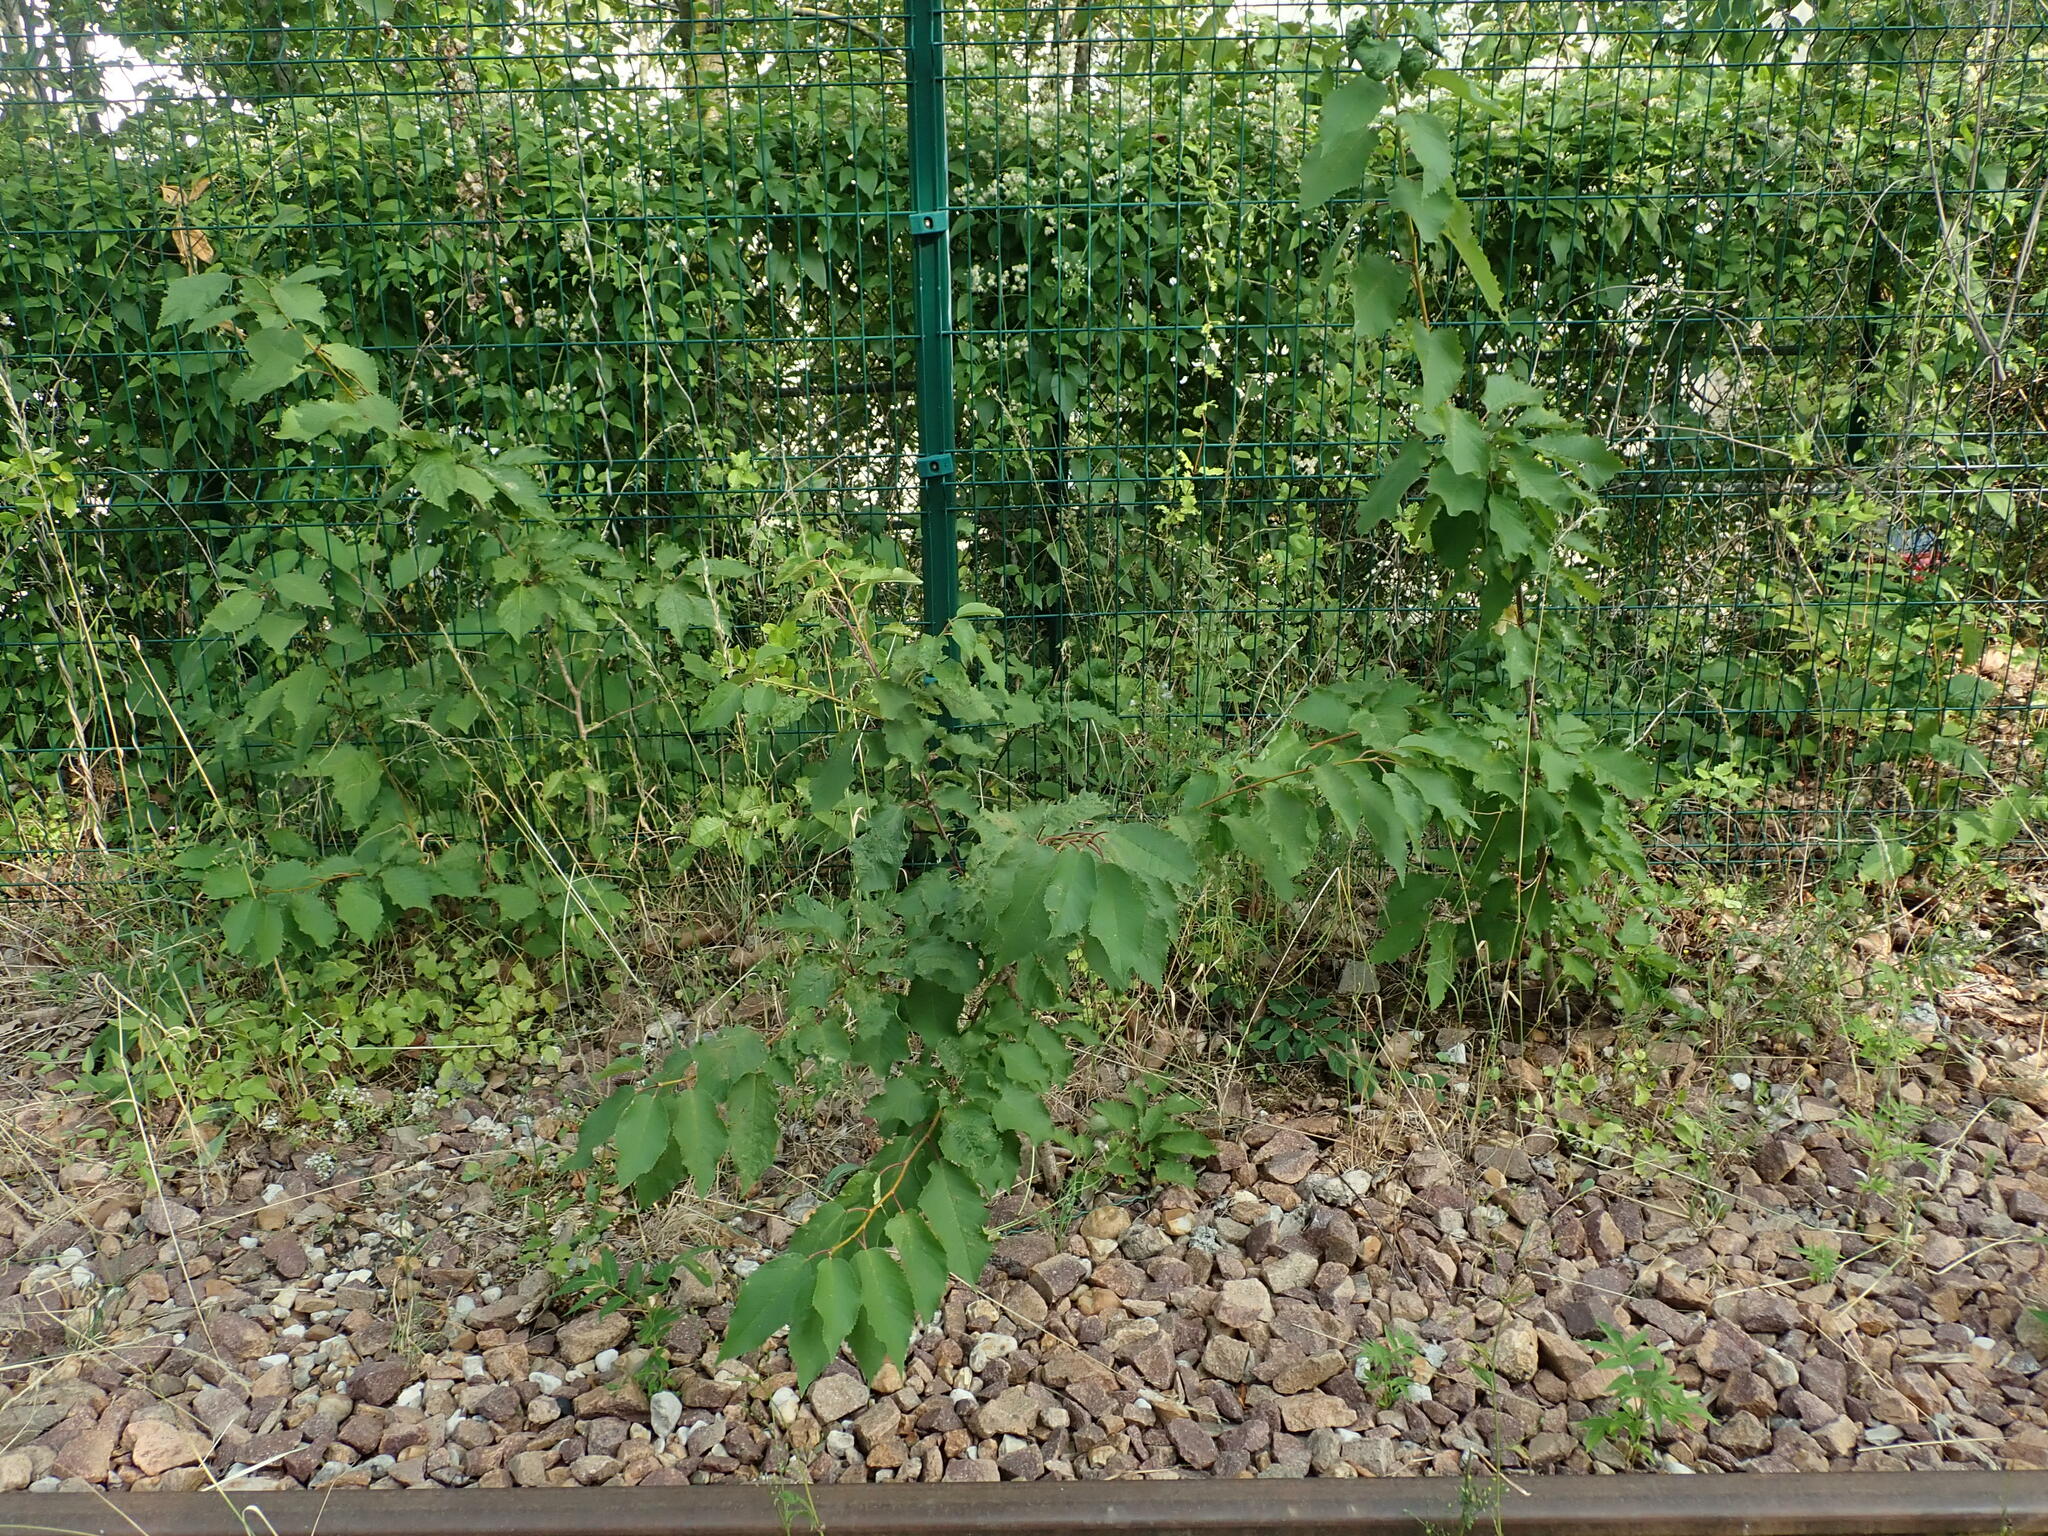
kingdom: Plantae
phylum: Tracheophyta
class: Magnoliopsida
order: Rosales
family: Rosaceae
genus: Prunus
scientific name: Prunus avium
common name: Sweet cherry
